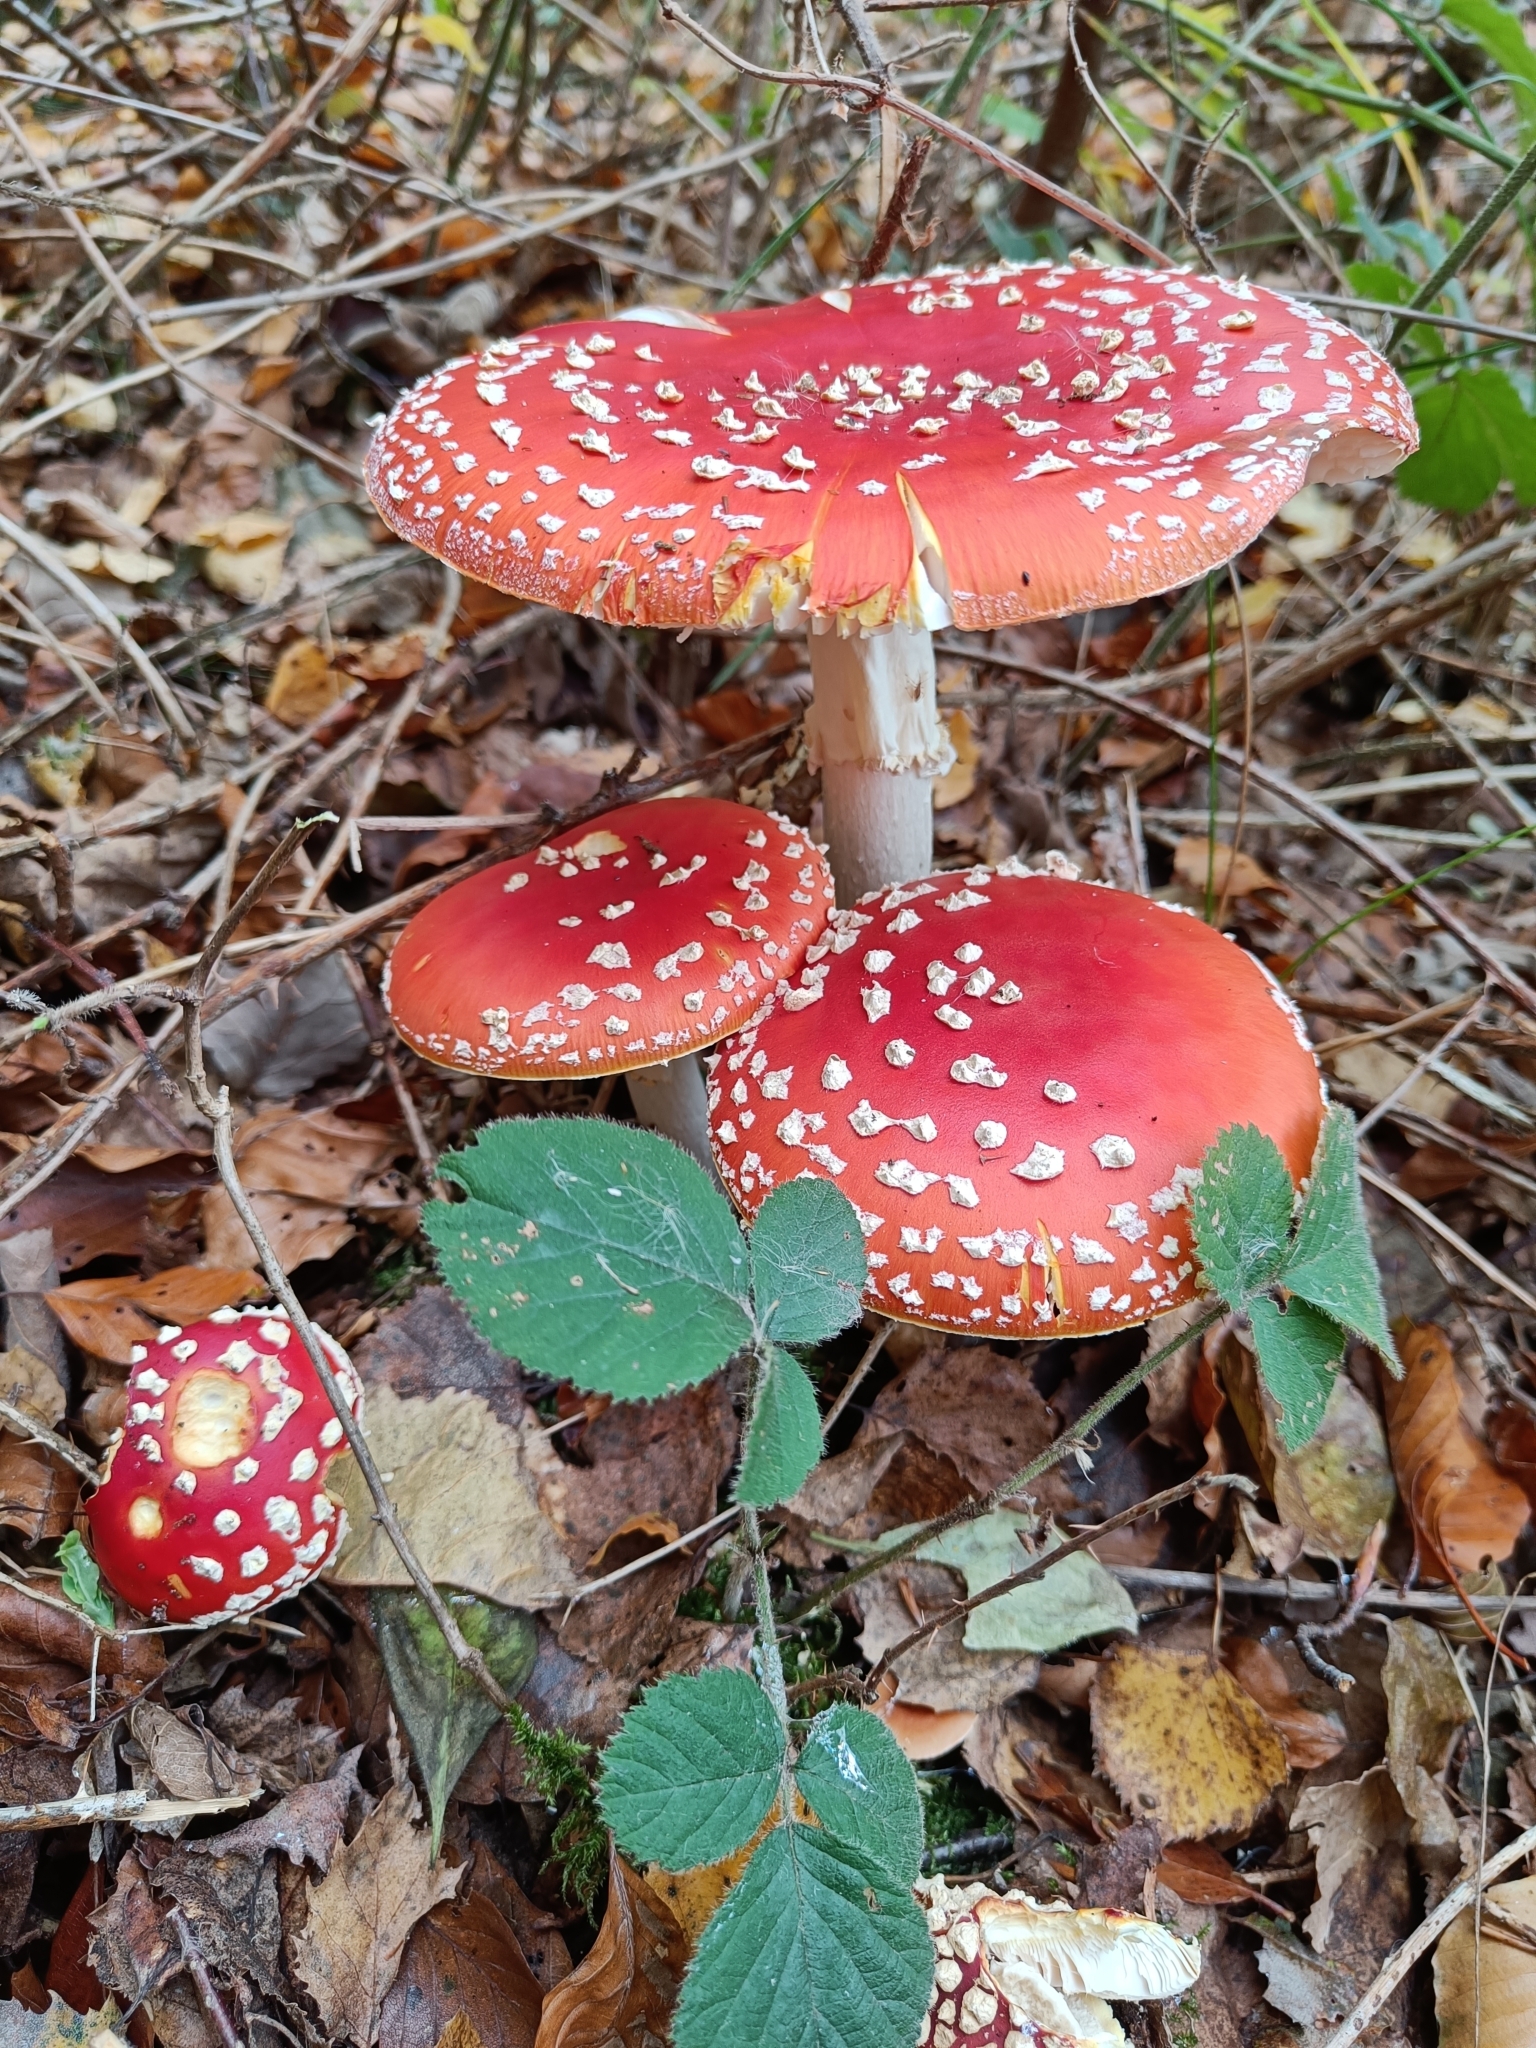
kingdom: Fungi
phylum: Basidiomycota
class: Agaricomycetes
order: Agaricales
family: Amanitaceae
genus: Amanita
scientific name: Amanita muscaria
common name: Fly agaric
